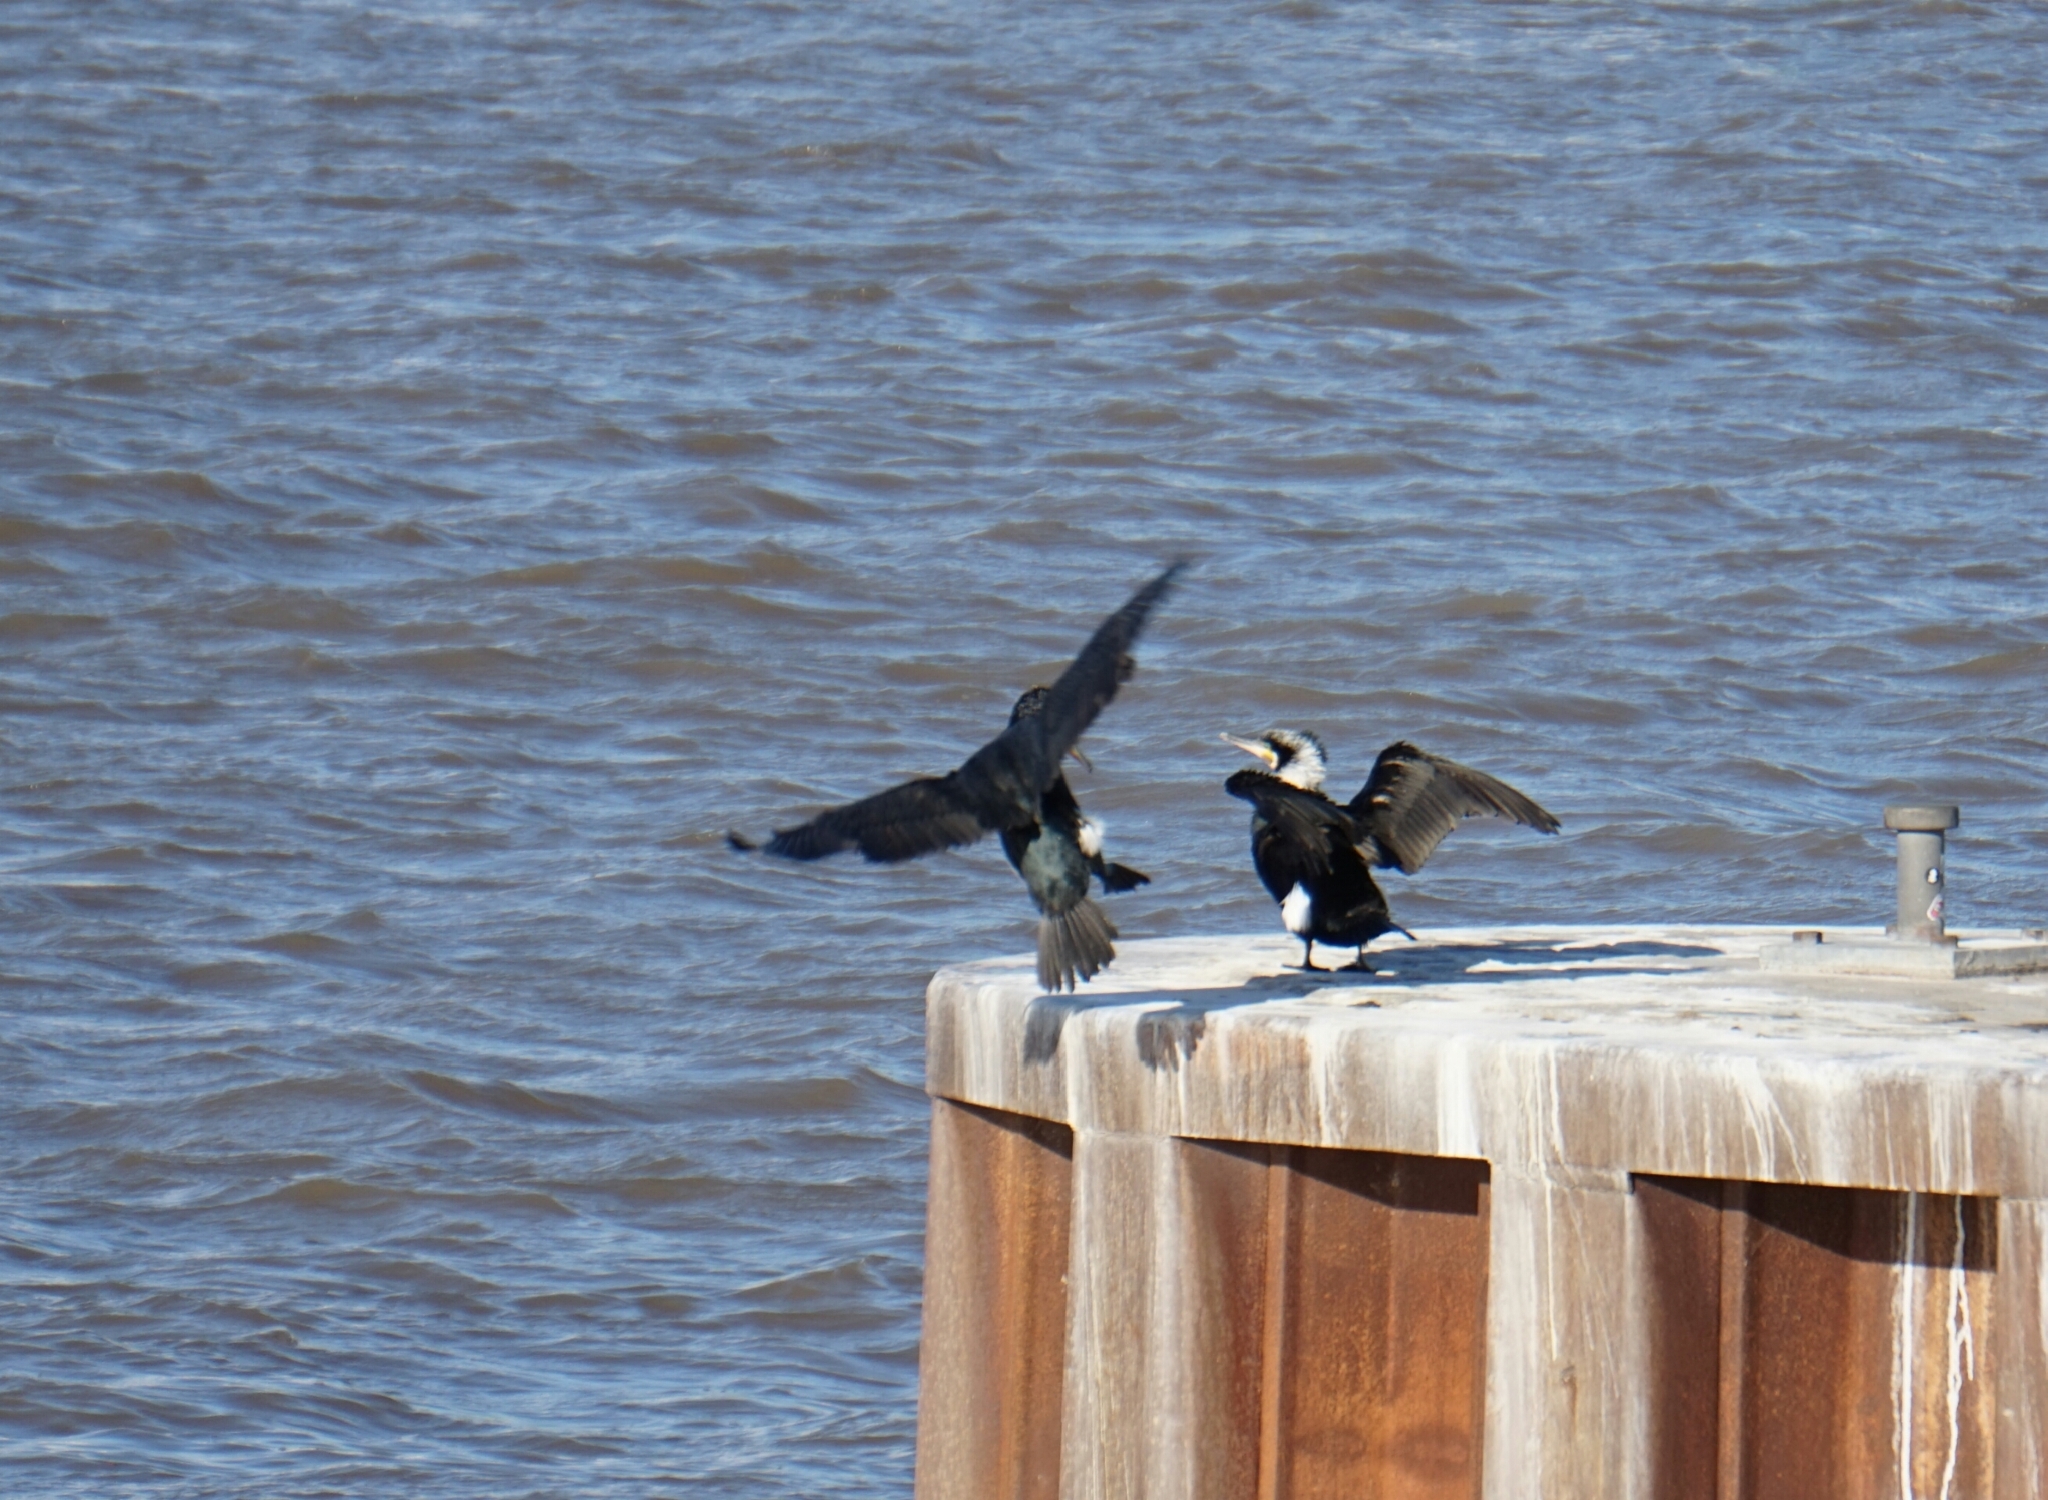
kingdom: Animalia
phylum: Chordata
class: Aves
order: Suliformes
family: Phalacrocoracidae
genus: Phalacrocorax
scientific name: Phalacrocorax carbo
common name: Great cormorant
